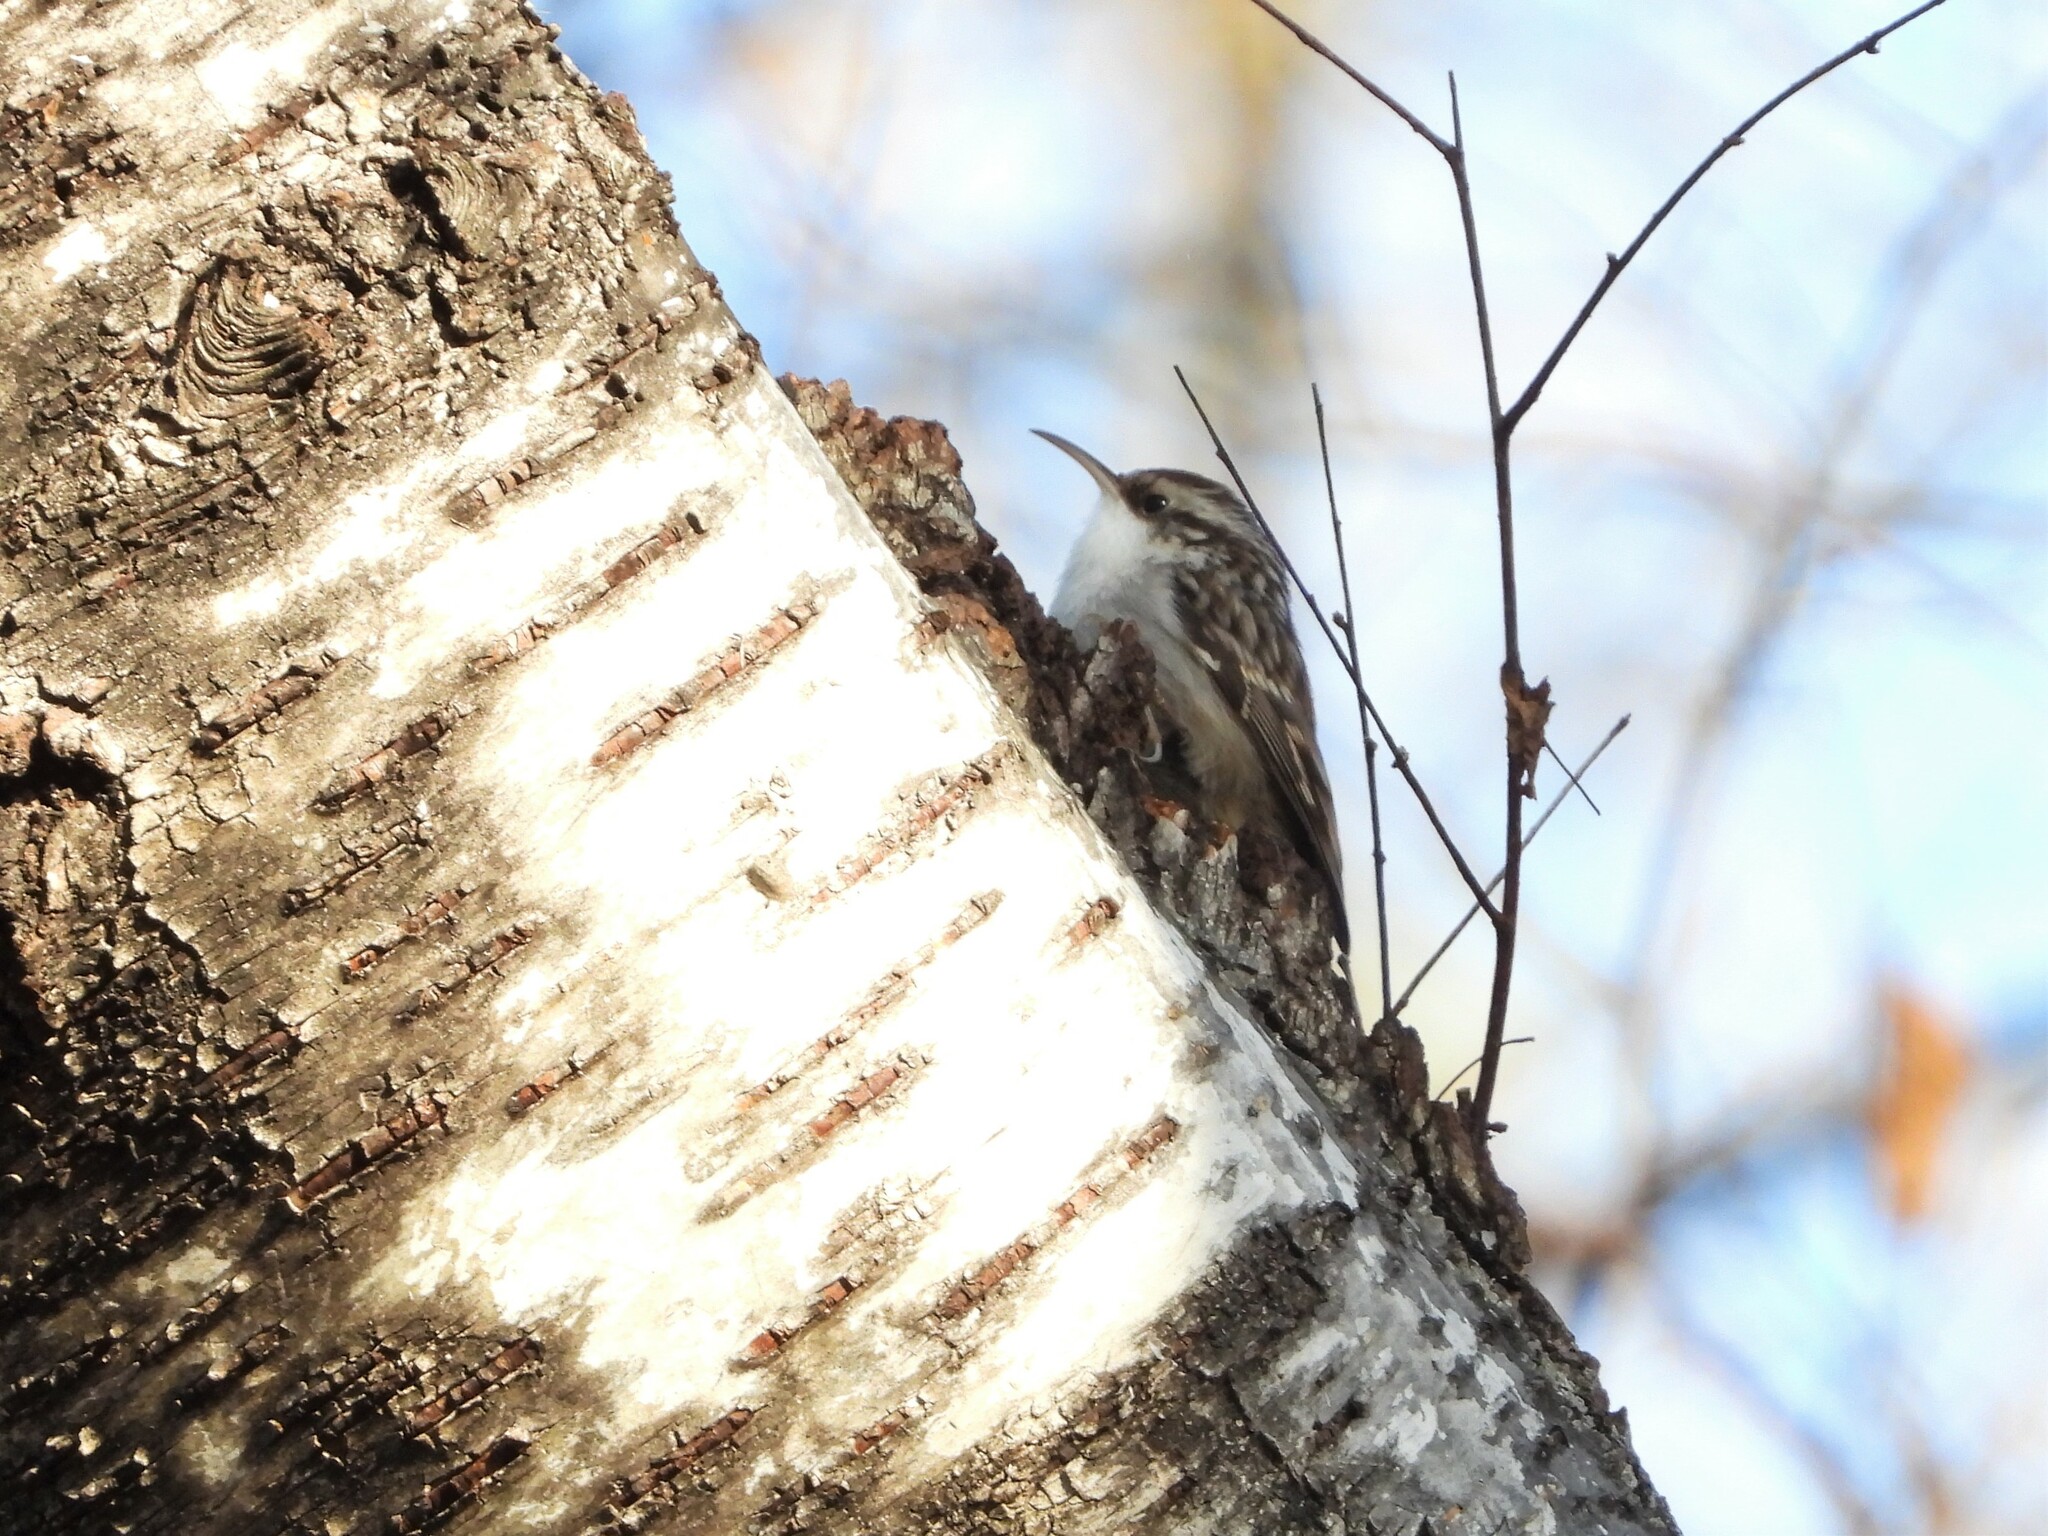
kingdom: Animalia
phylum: Chordata
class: Aves
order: Passeriformes
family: Certhiidae
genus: Certhia
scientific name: Certhia brachydactyla
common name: Short-toed treecreeper
